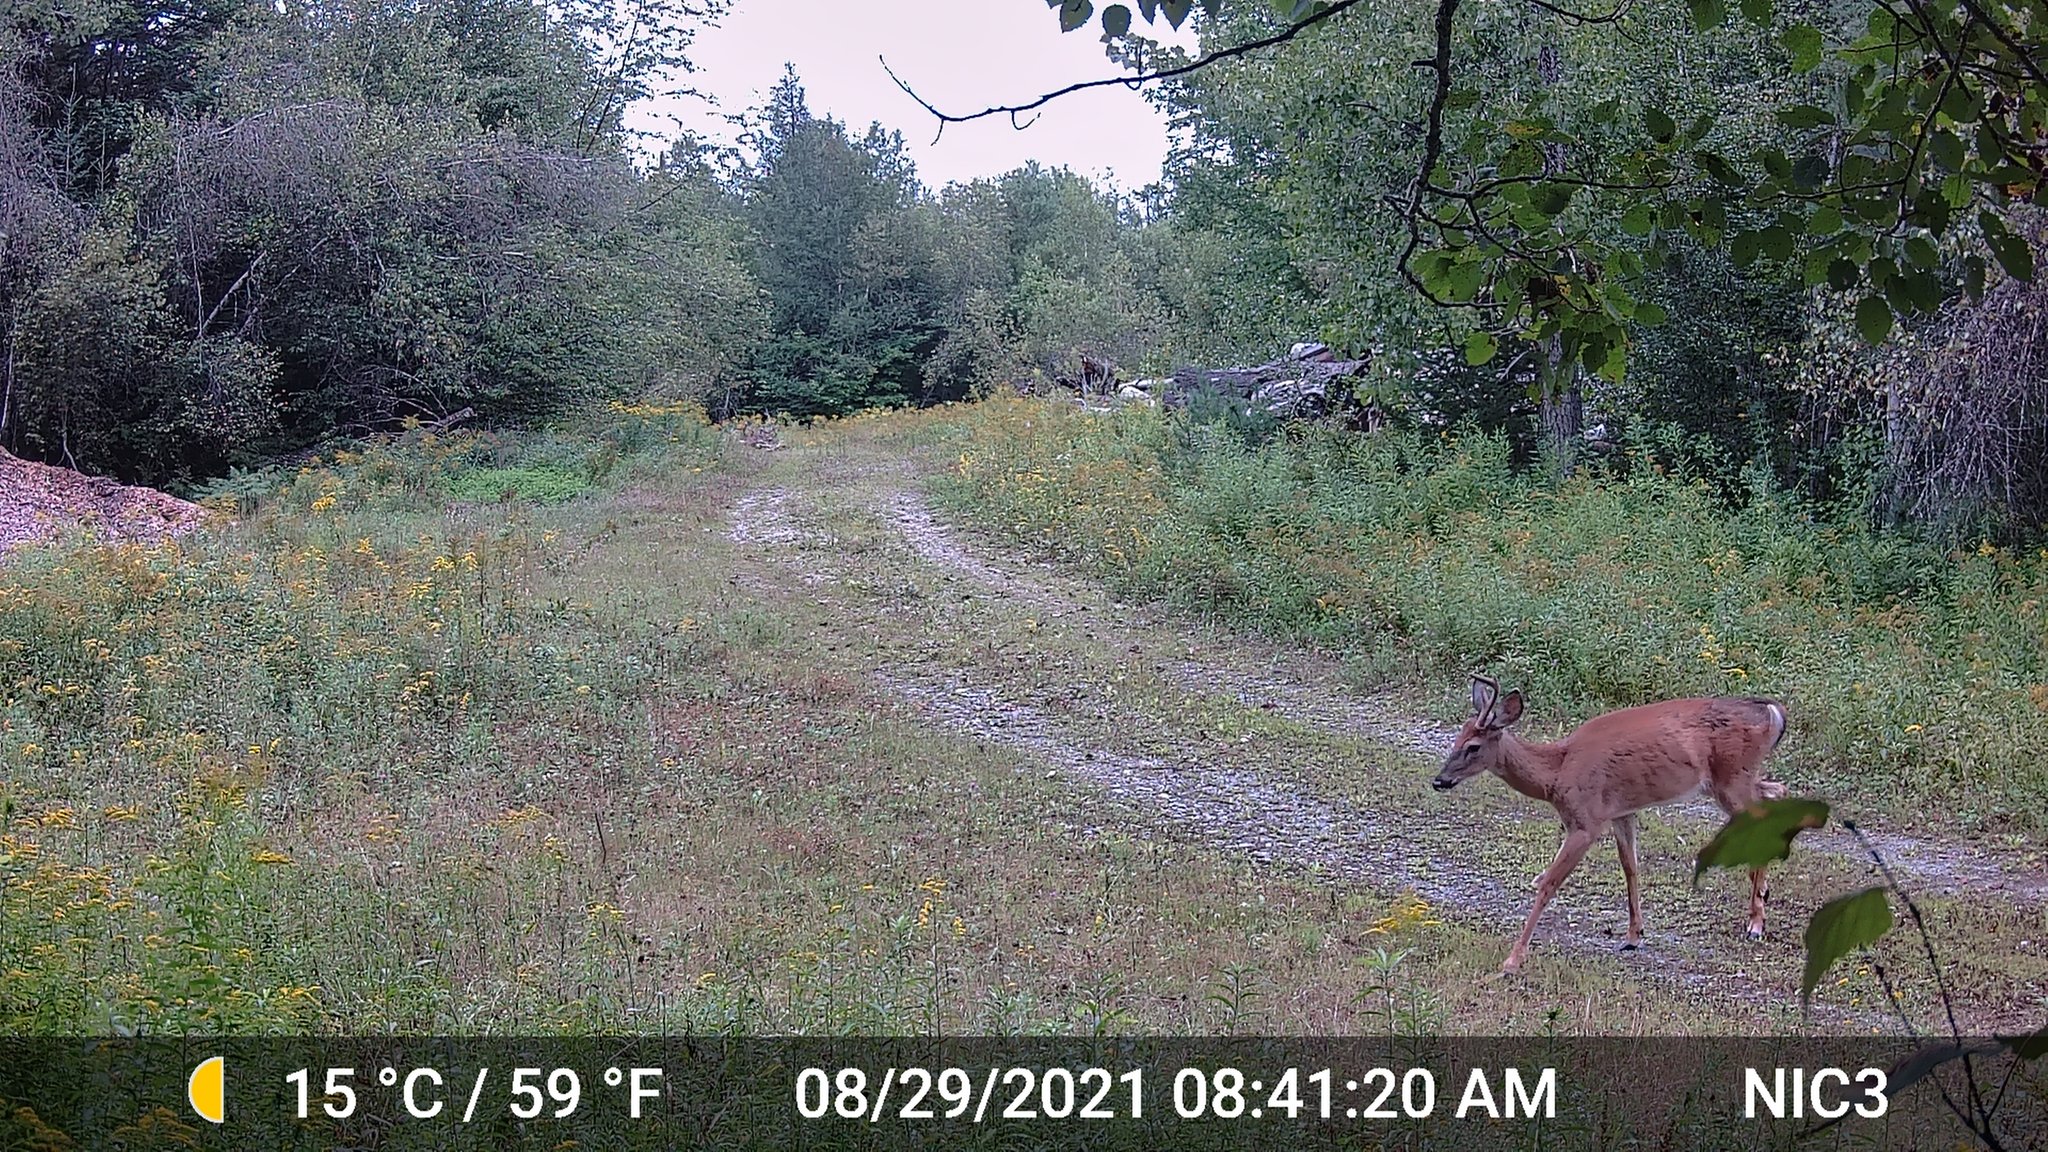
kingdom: Animalia
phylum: Chordata
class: Mammalia
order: Artiodactyla
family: Cervidae
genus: Odocoileus
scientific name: Odocoileus virginianus
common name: White-tailed deer
